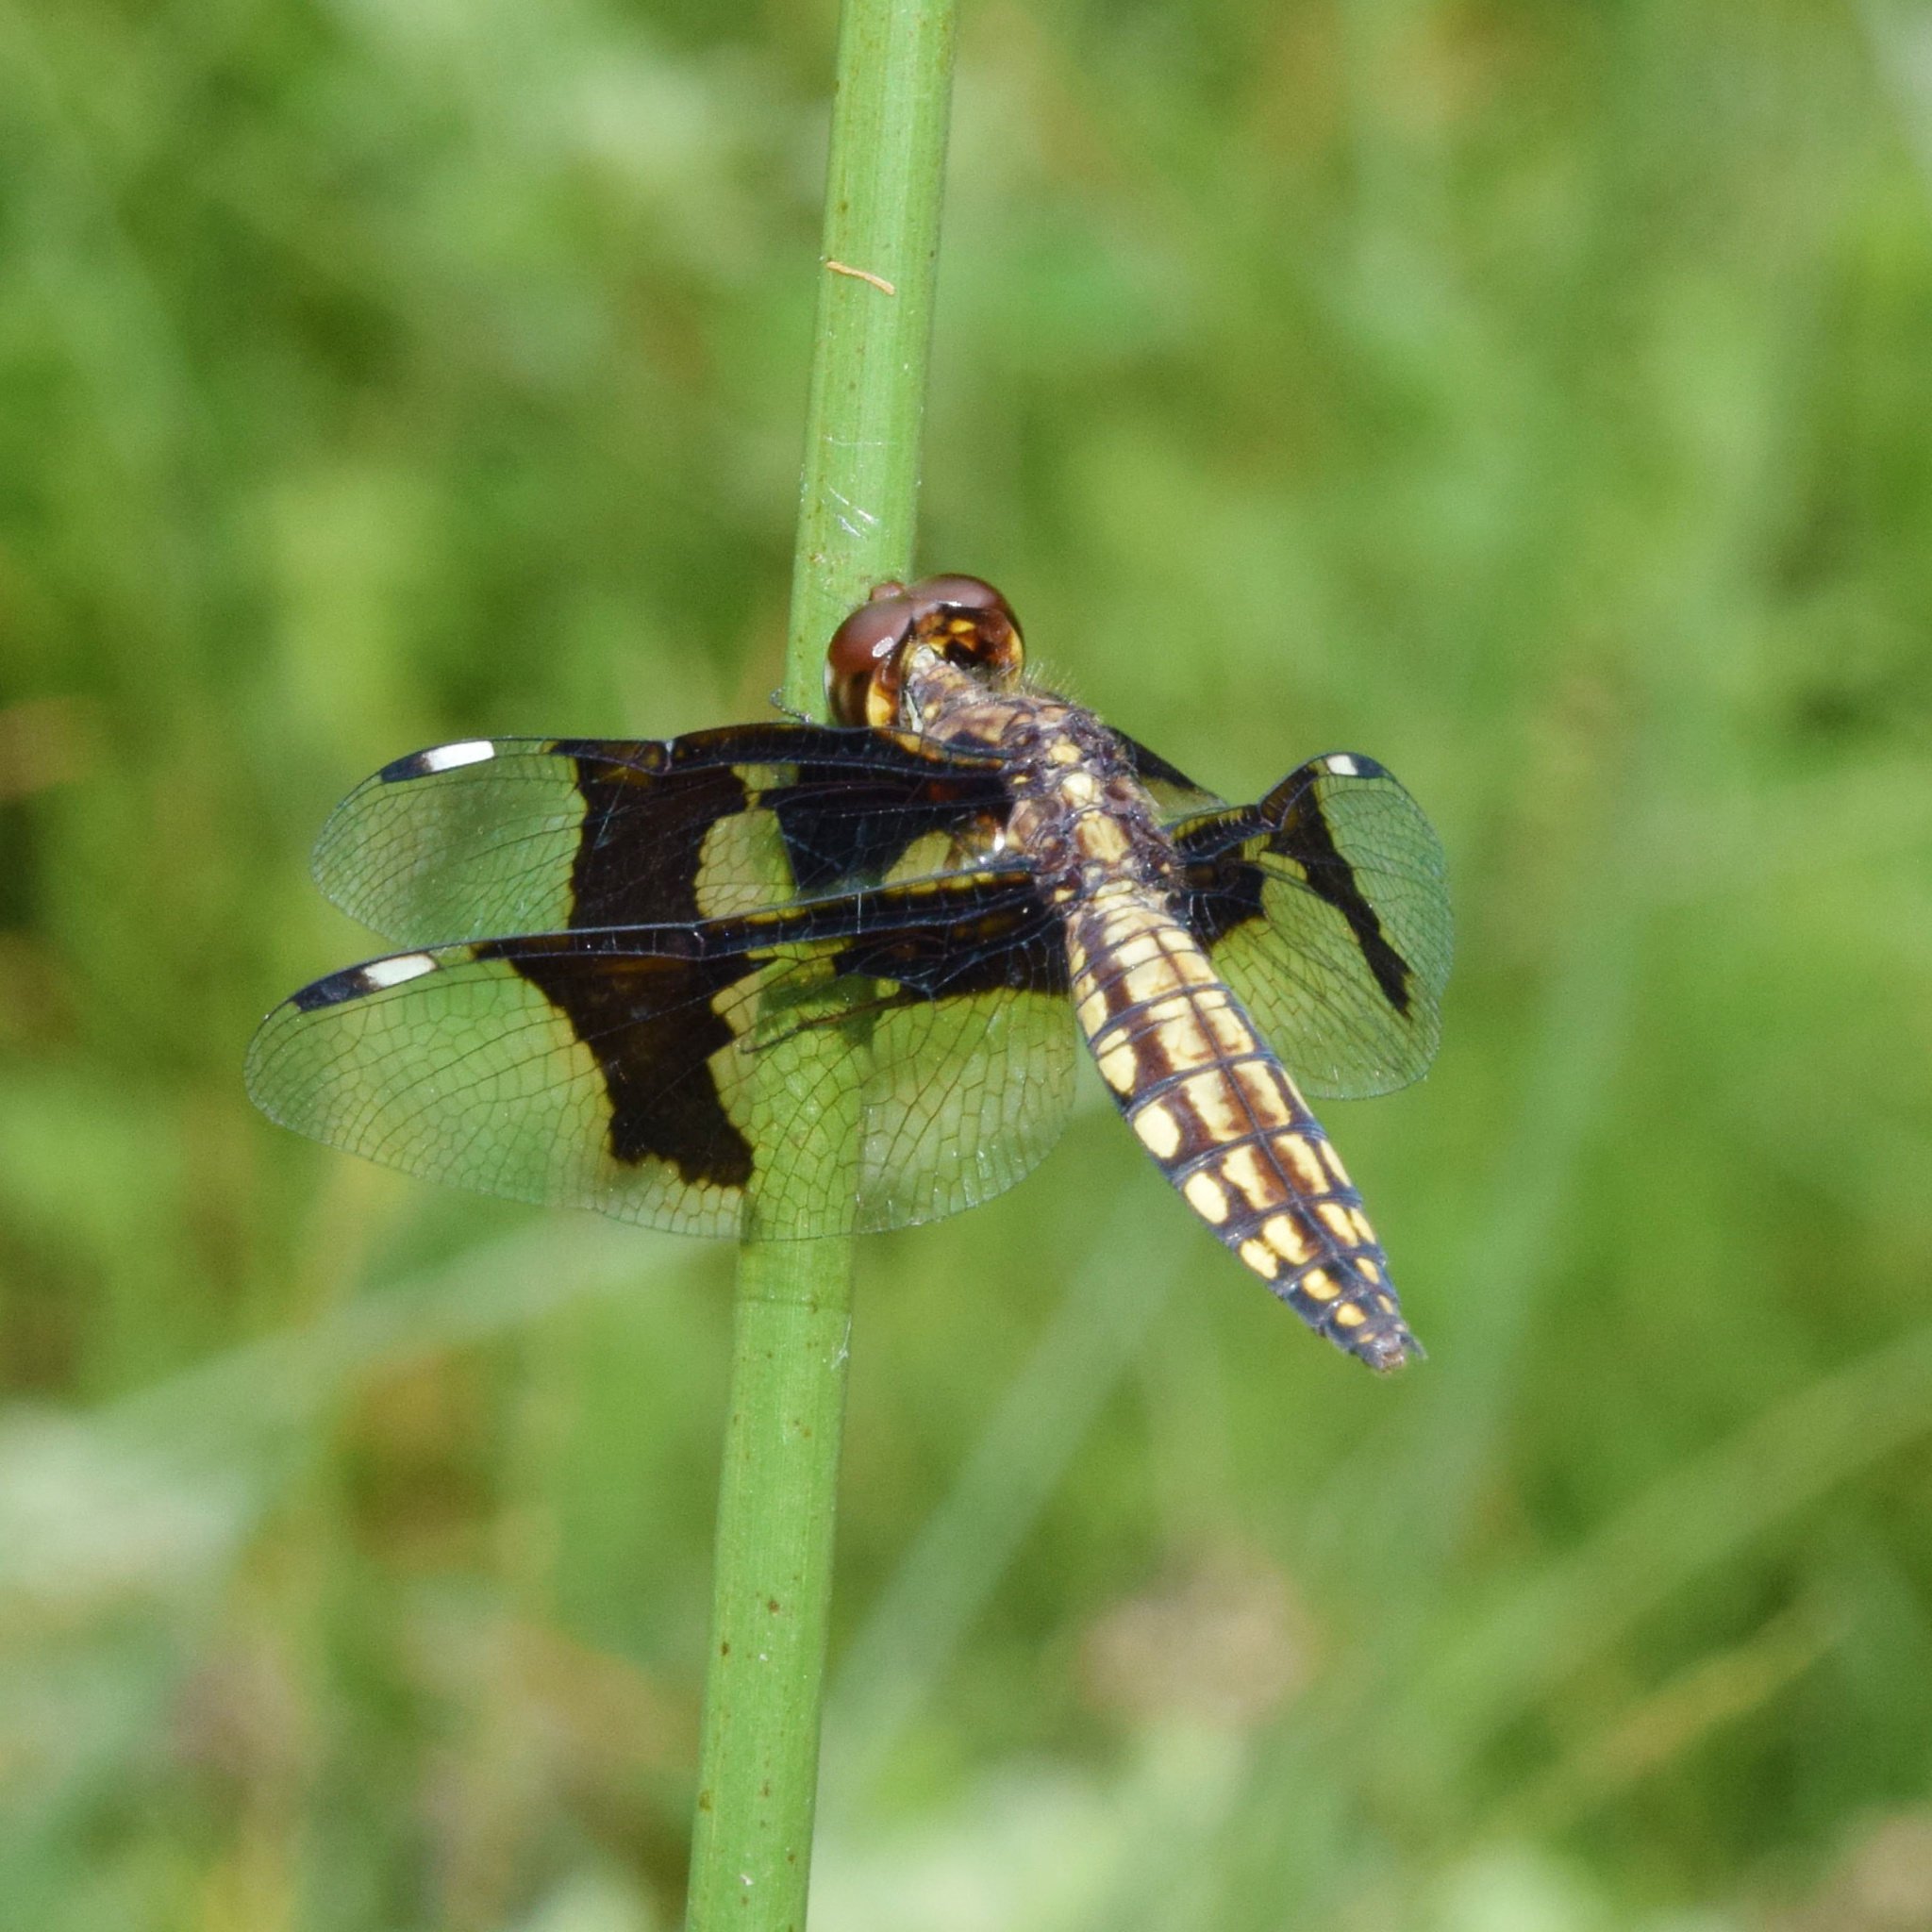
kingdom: Animalia
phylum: Arthropoda
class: Insecta
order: Odonata
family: Libellulidae
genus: Palpopleura
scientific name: Palpopleura lucia
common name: Lucia widow
